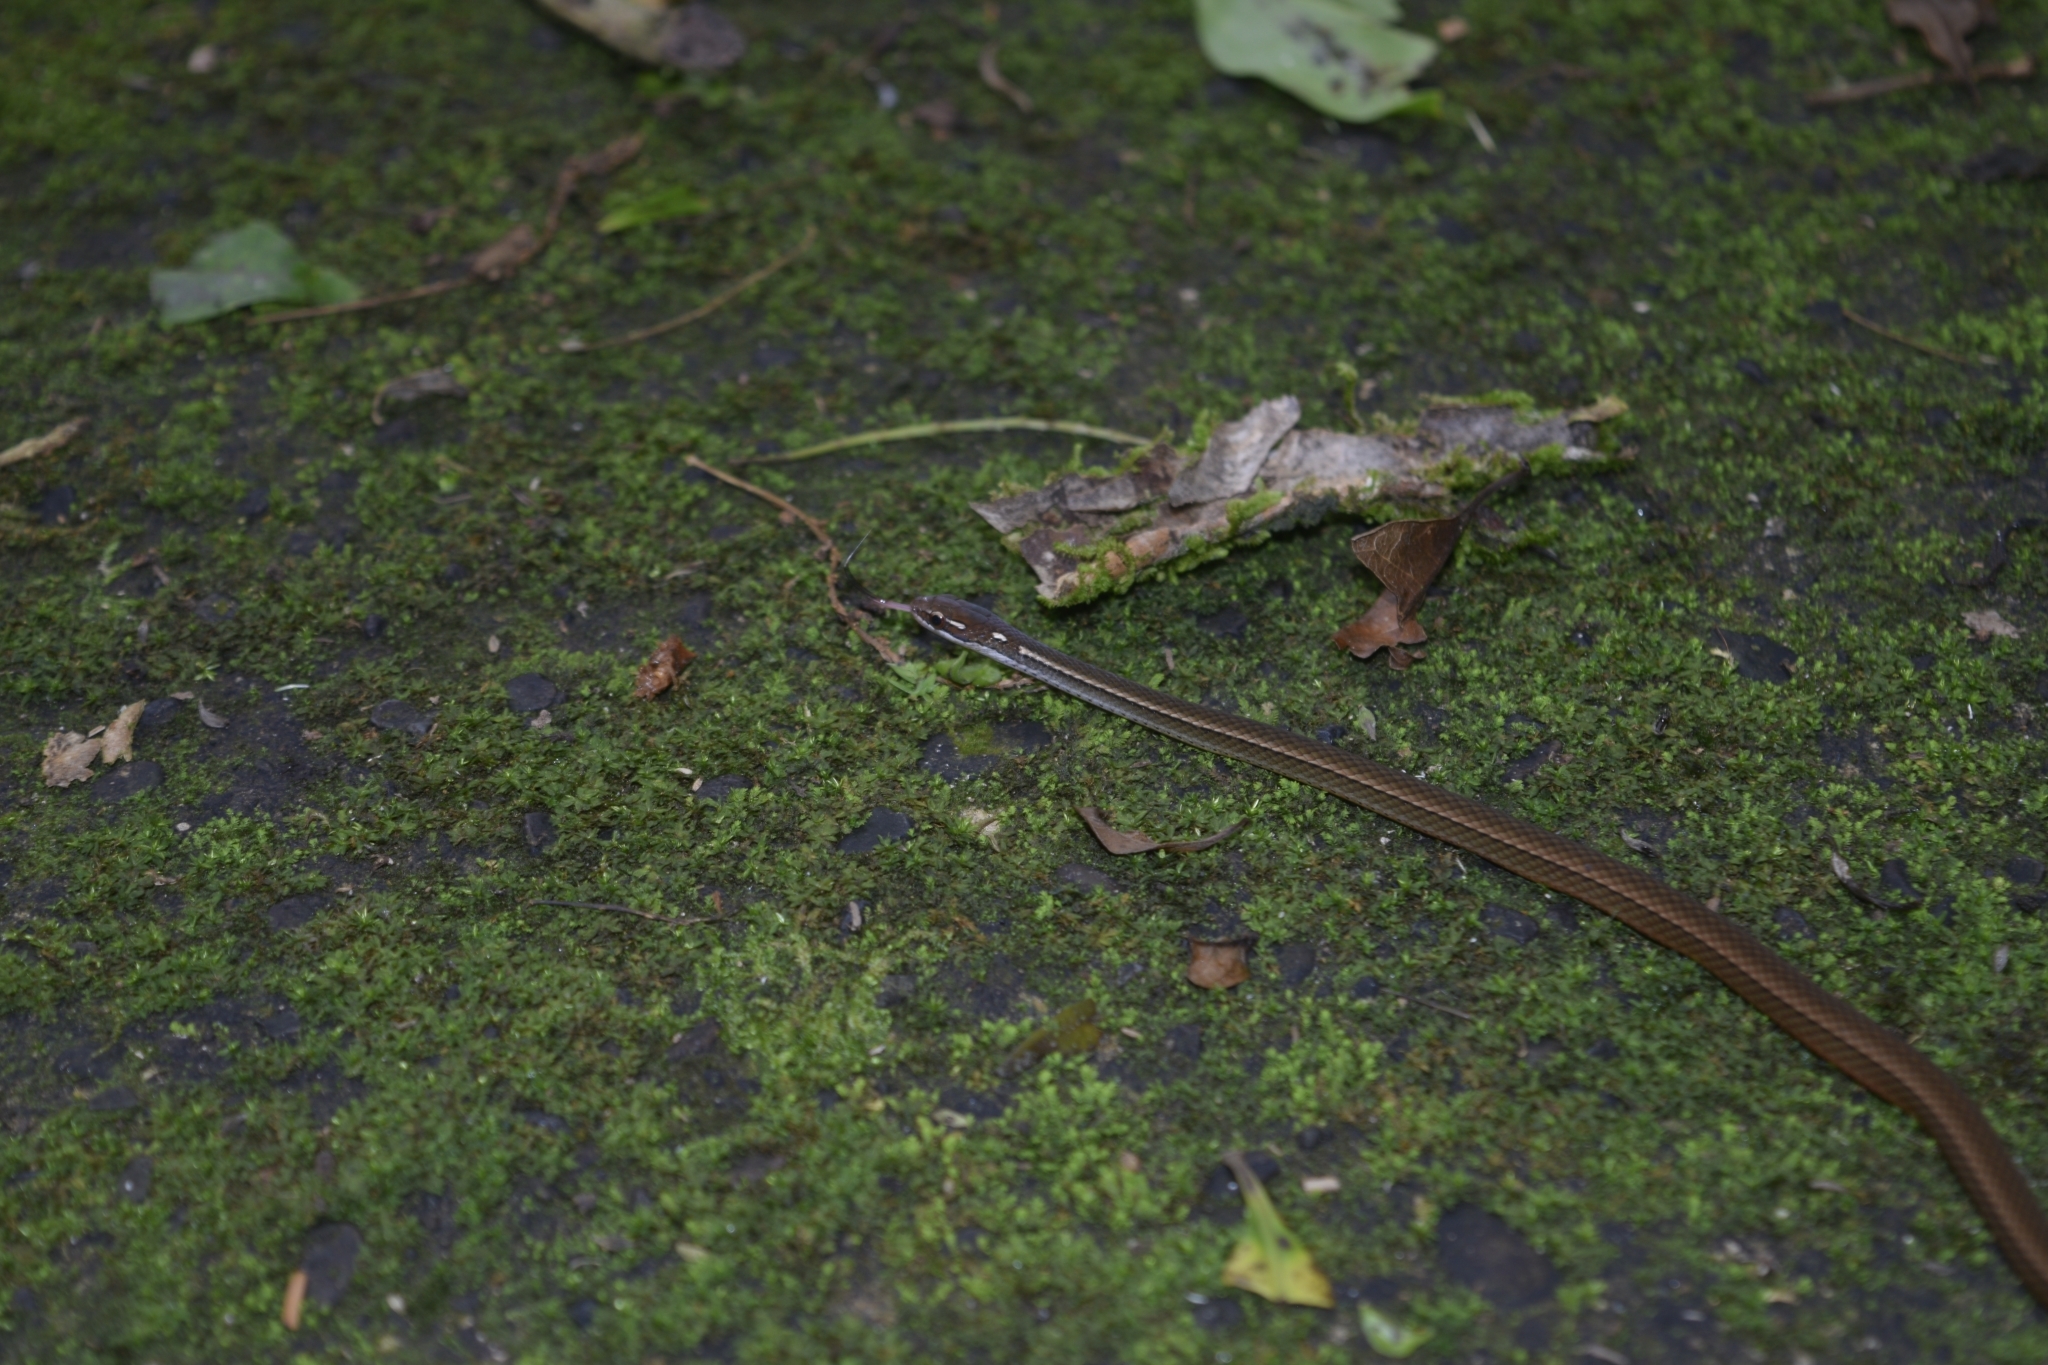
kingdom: Animalia
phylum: Chordata
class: Squamata
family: Colubridae
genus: Rhadinaea
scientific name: Rhadinaea decorata
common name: Adorned graceful brown snake
